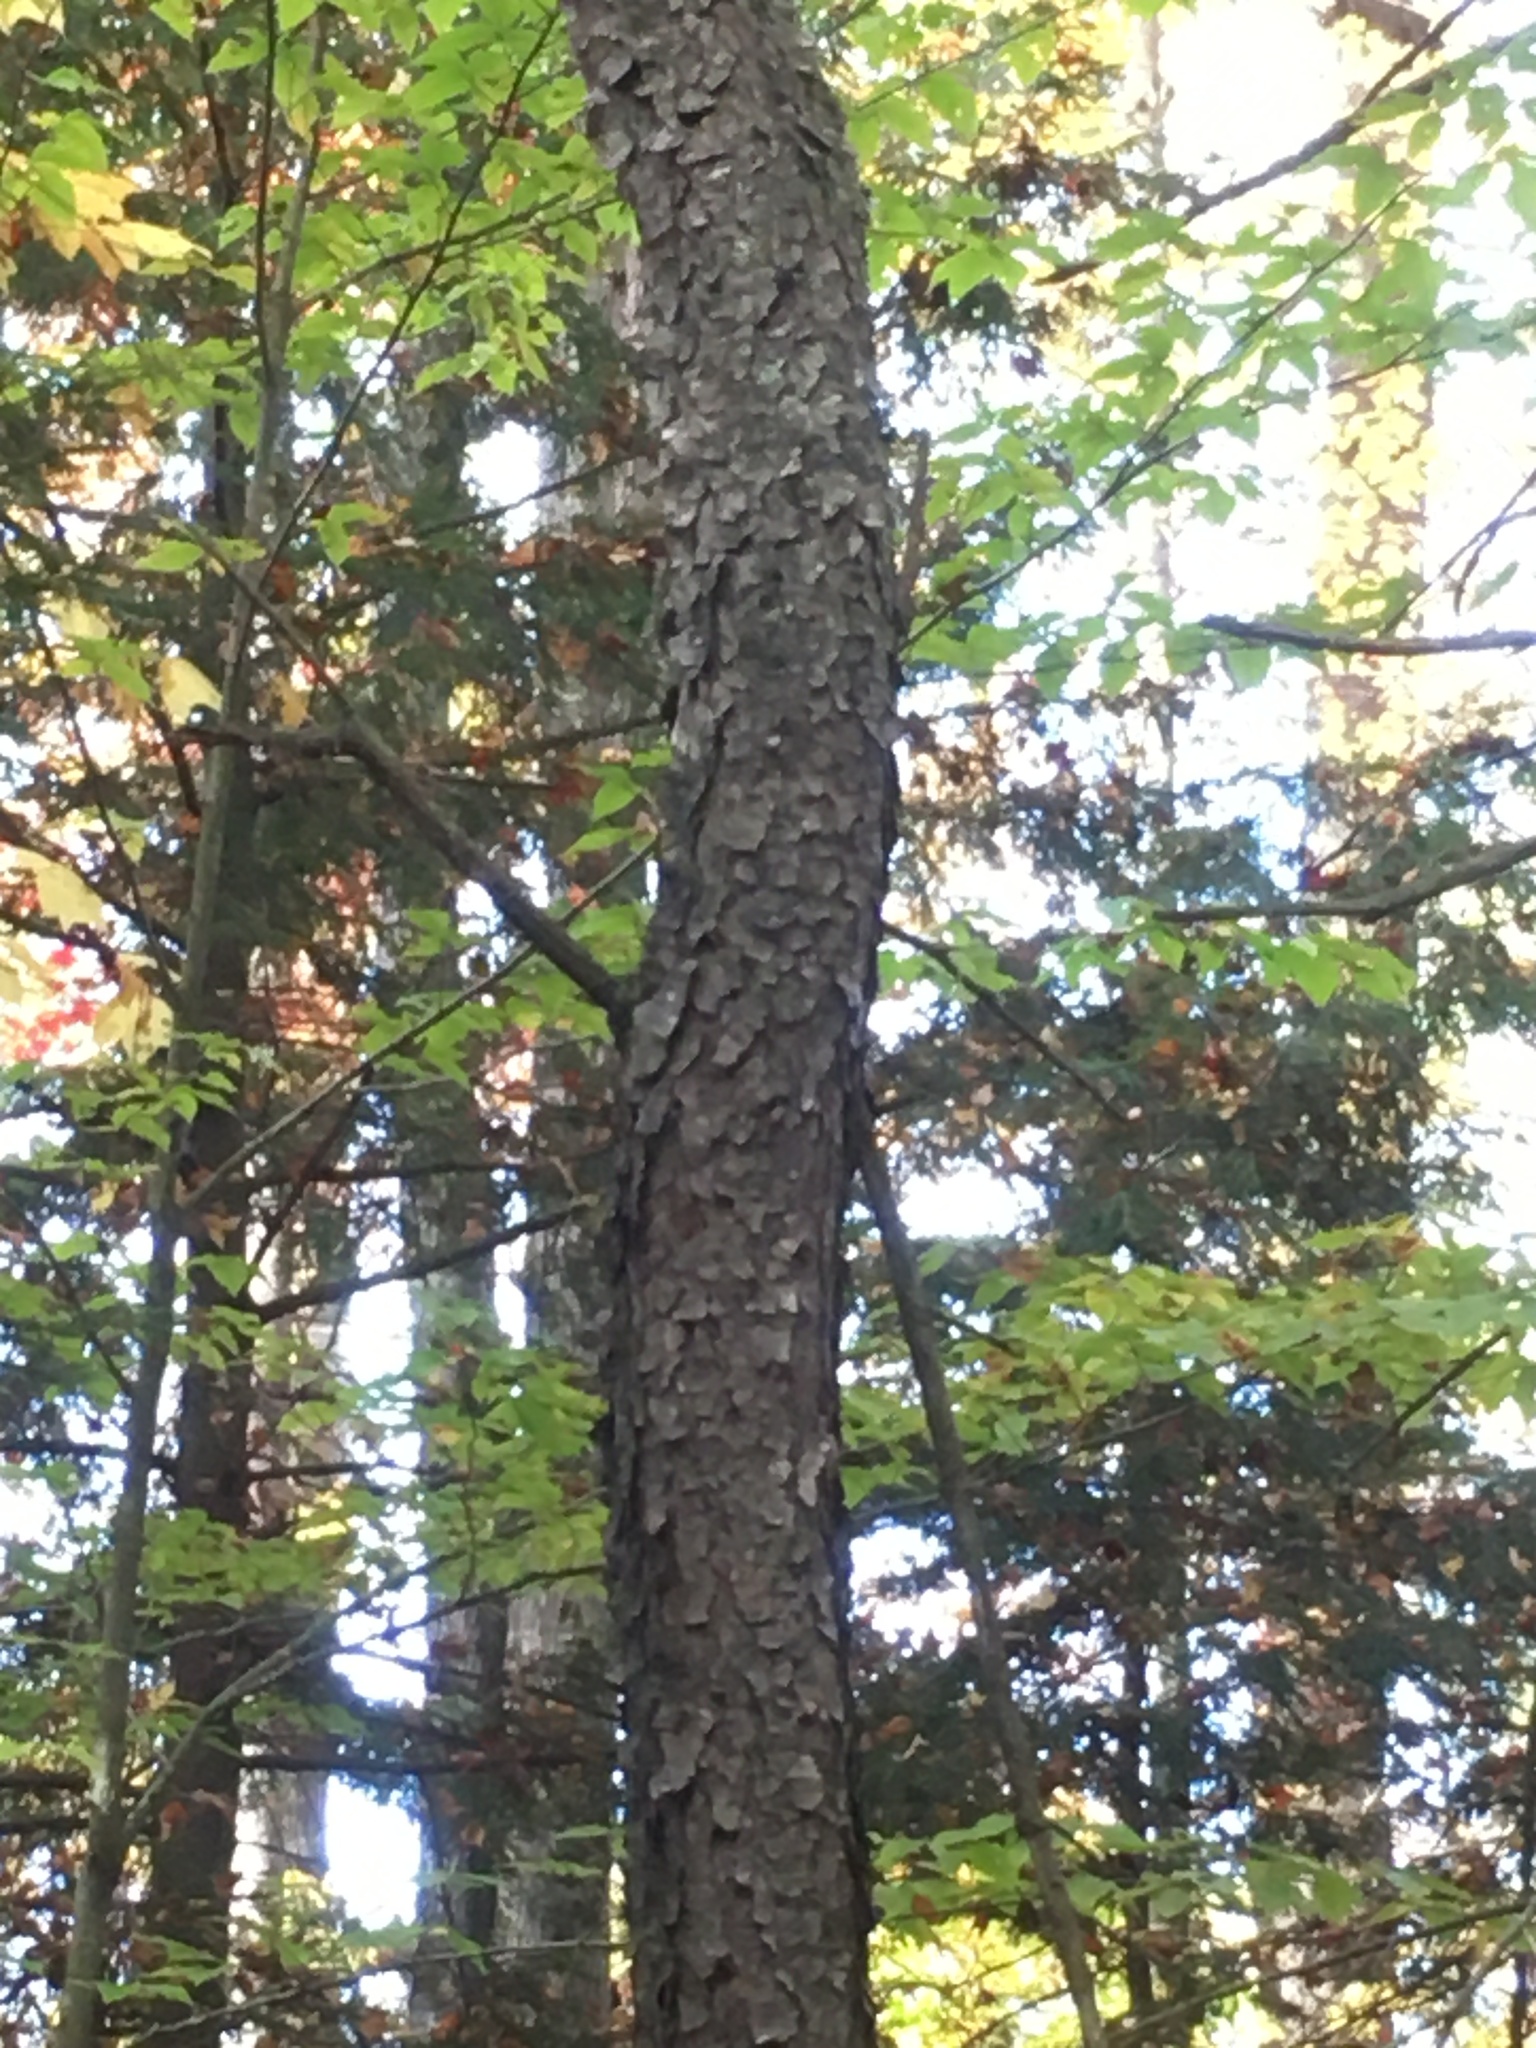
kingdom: Plantae
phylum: Tracheophyta
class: Magnoliopsida
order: Rosales
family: Rosaceae
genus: Prunus
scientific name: Prunus serotina
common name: Black cherry
